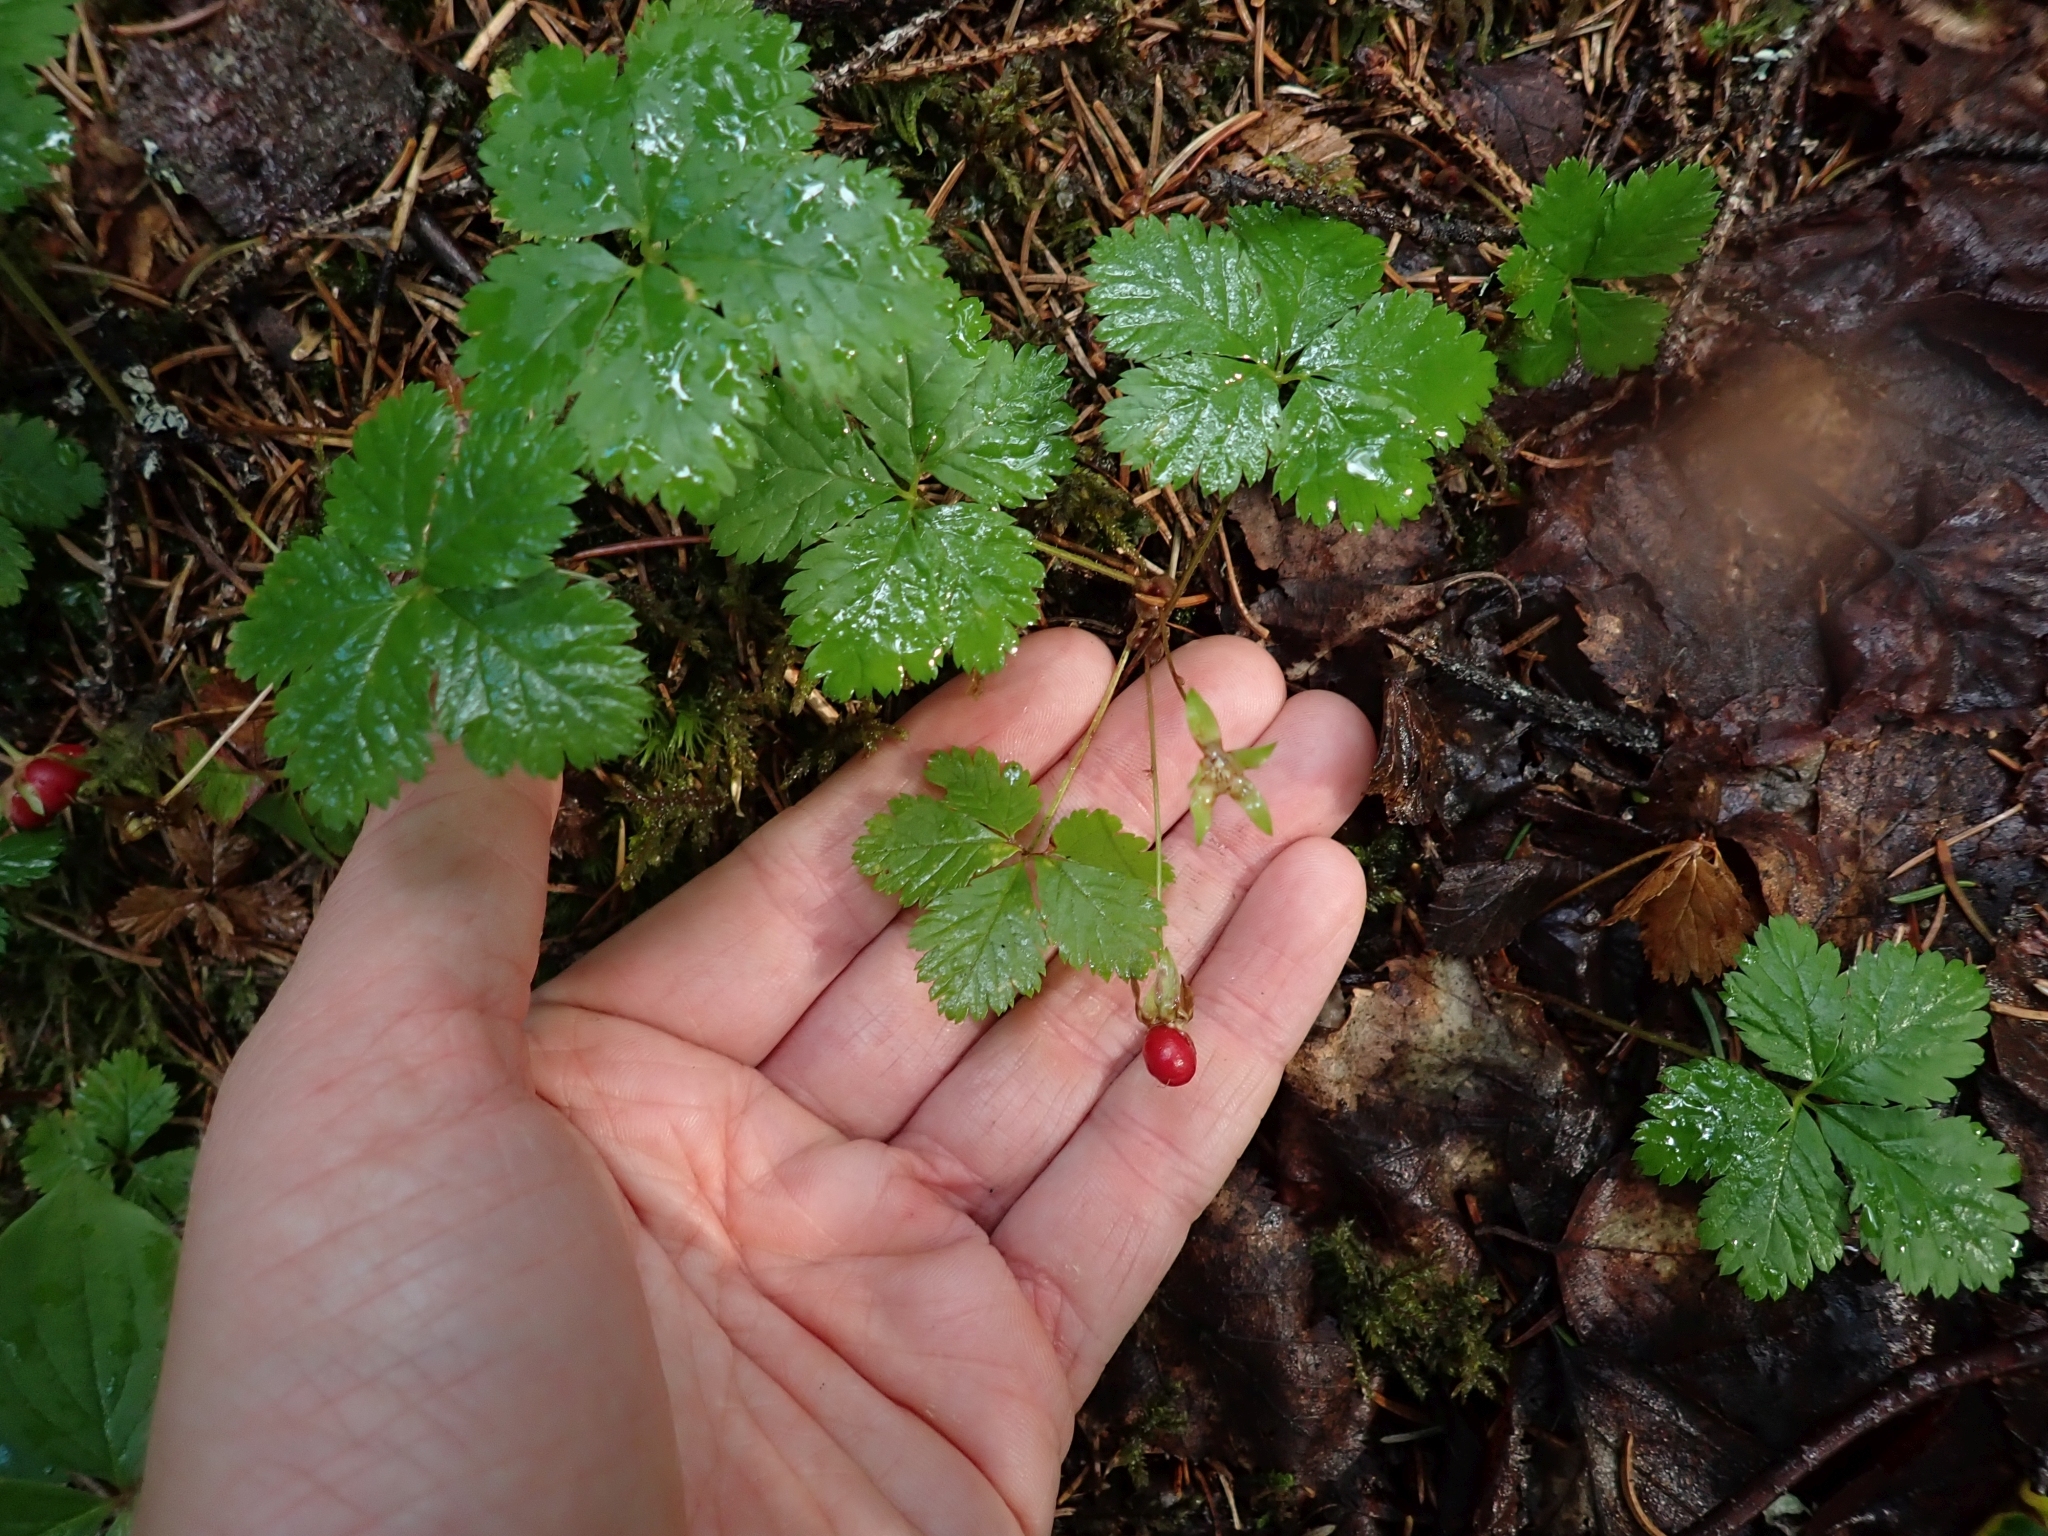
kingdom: Plantae
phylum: Tracheophyta
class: Magnoliopsida
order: Rosales
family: Rosaceae
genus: Rubus
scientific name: Rubus pedatus
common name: Creeping raspberry
